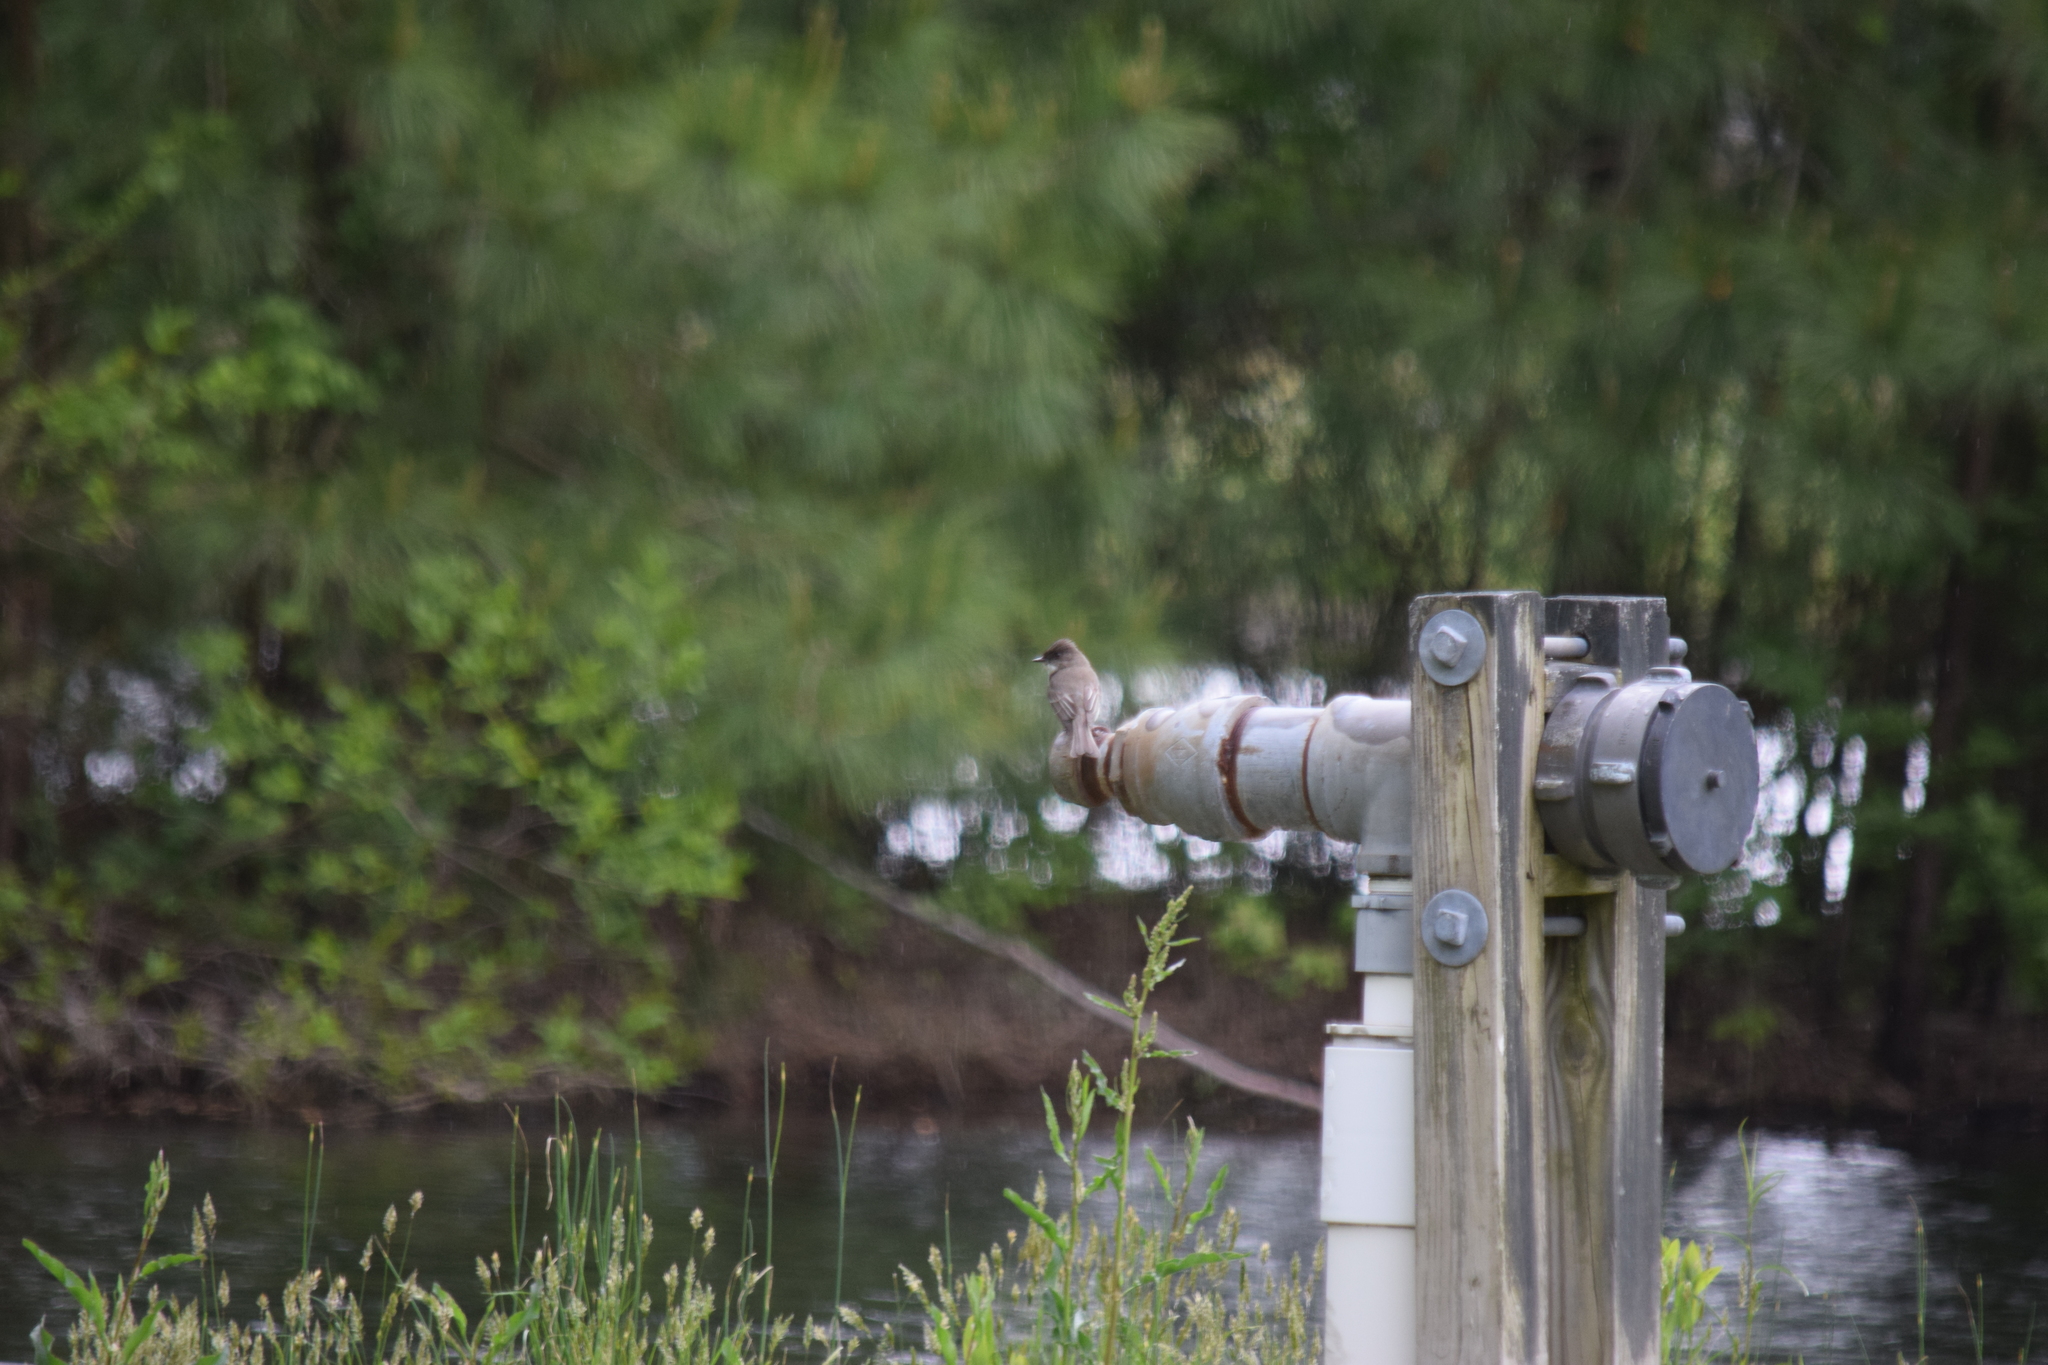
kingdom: Animalia
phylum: Chordata
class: Aves
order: Passeriformes
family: Tyrannidae
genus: Sayornis
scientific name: Sayornis phoebe
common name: Eastern phoebe
